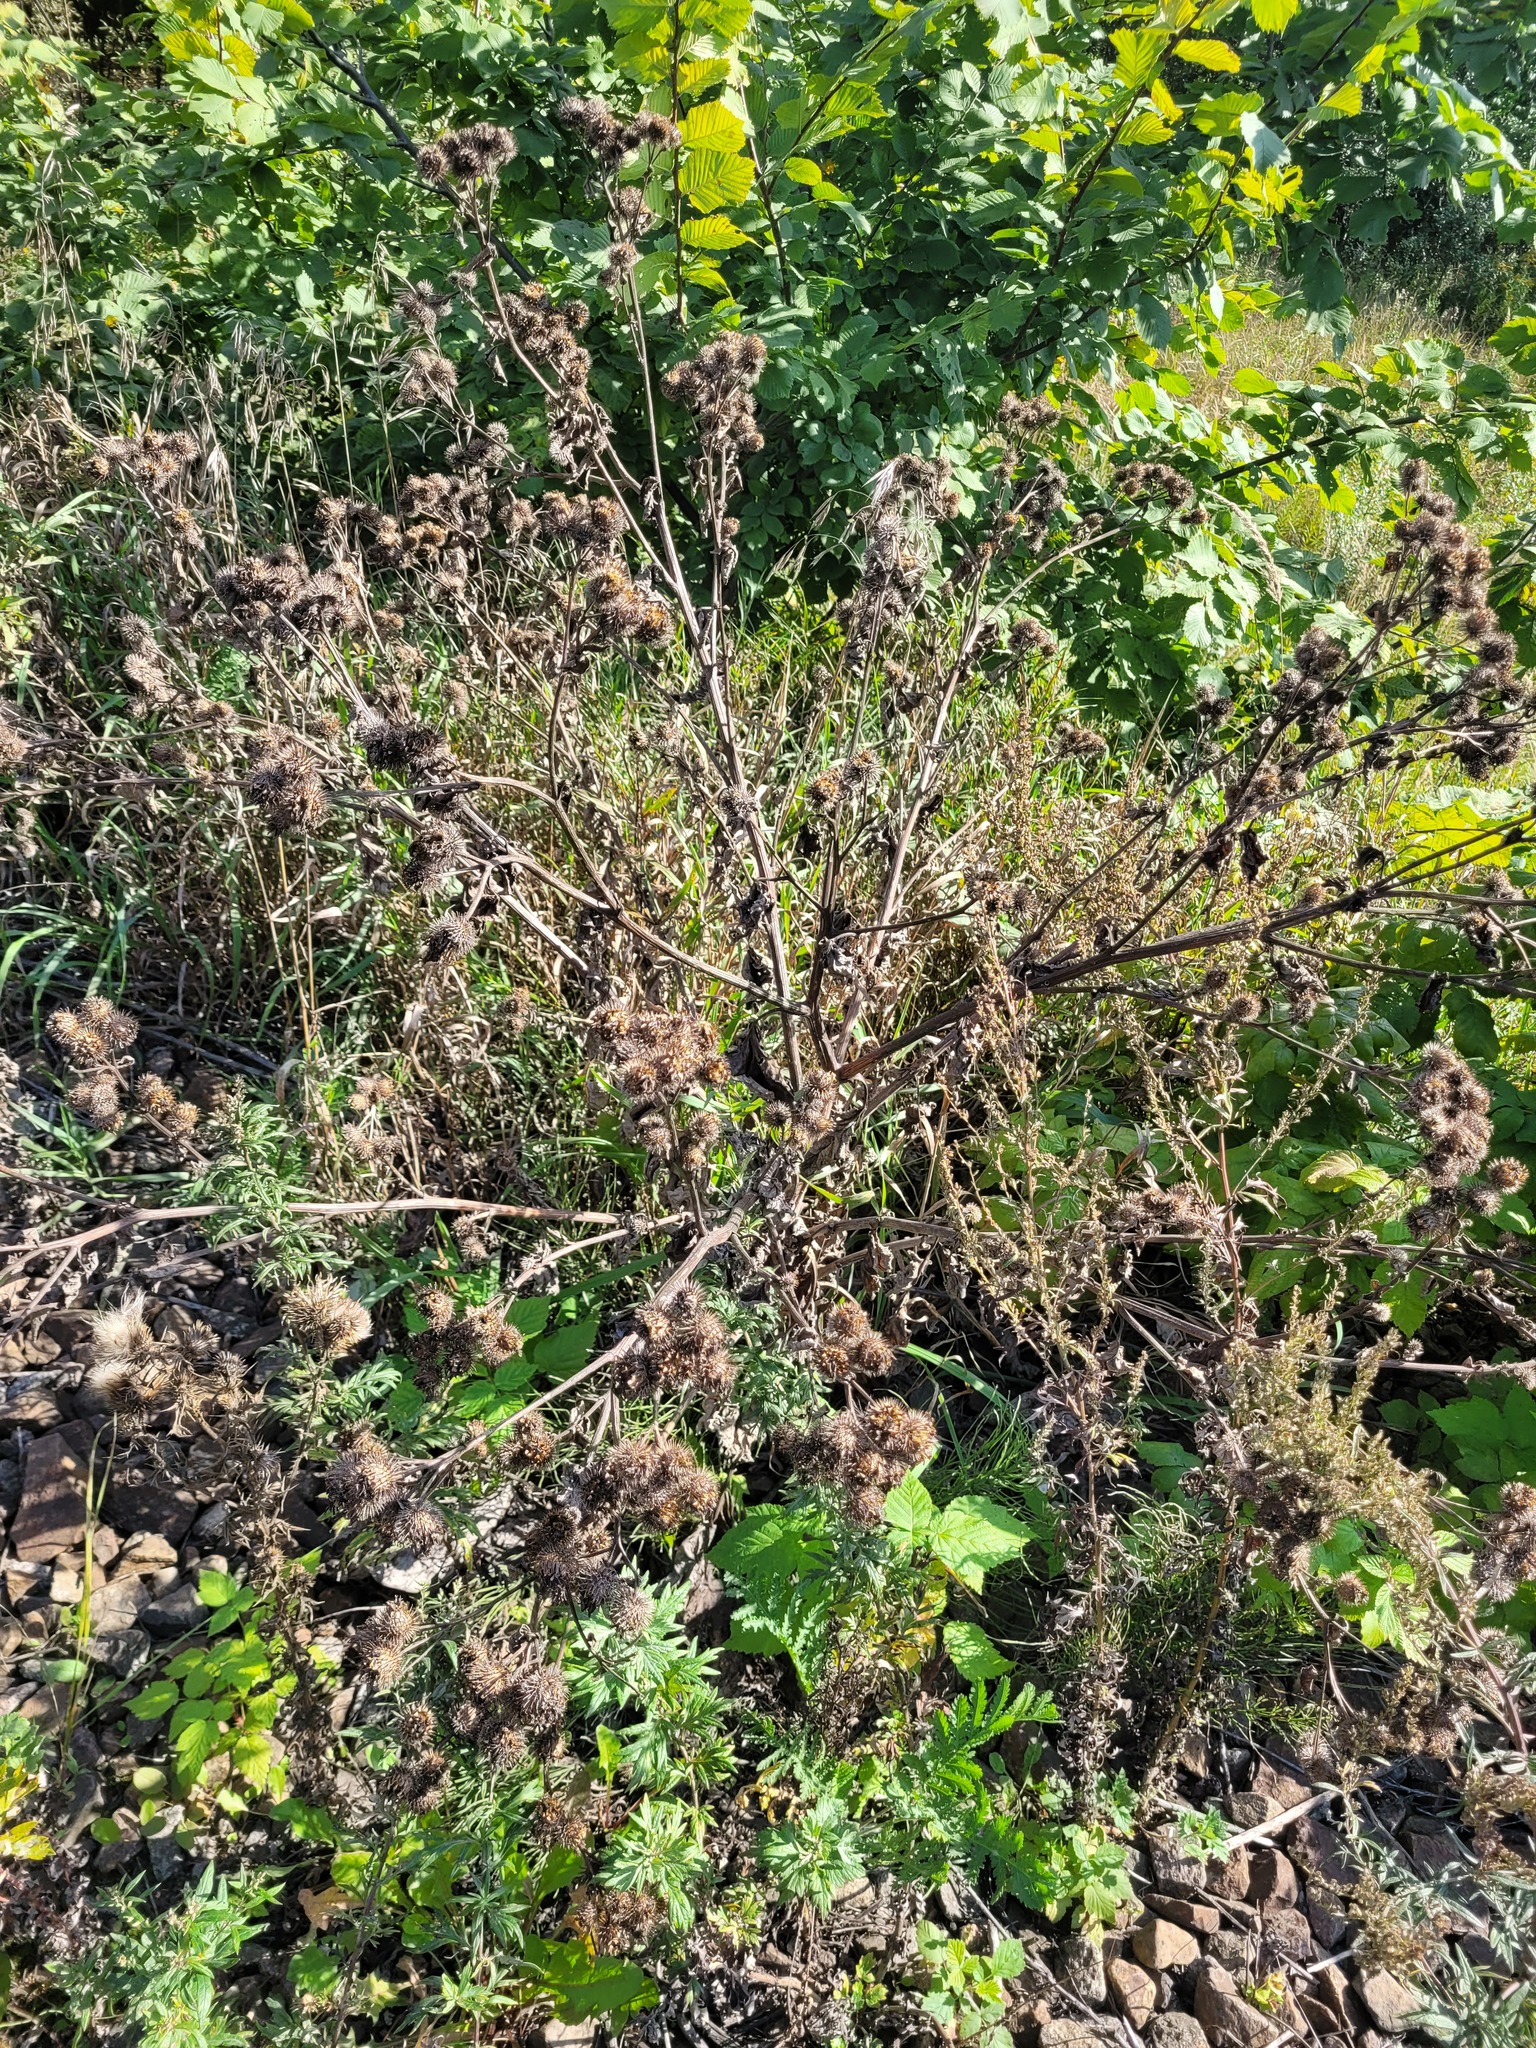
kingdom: Plantae
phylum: Tracheophyta
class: Magnoliopsida
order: Asterales
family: Asteraceae
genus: Arctium
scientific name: Arctium tomentosum
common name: Woolly burdock
